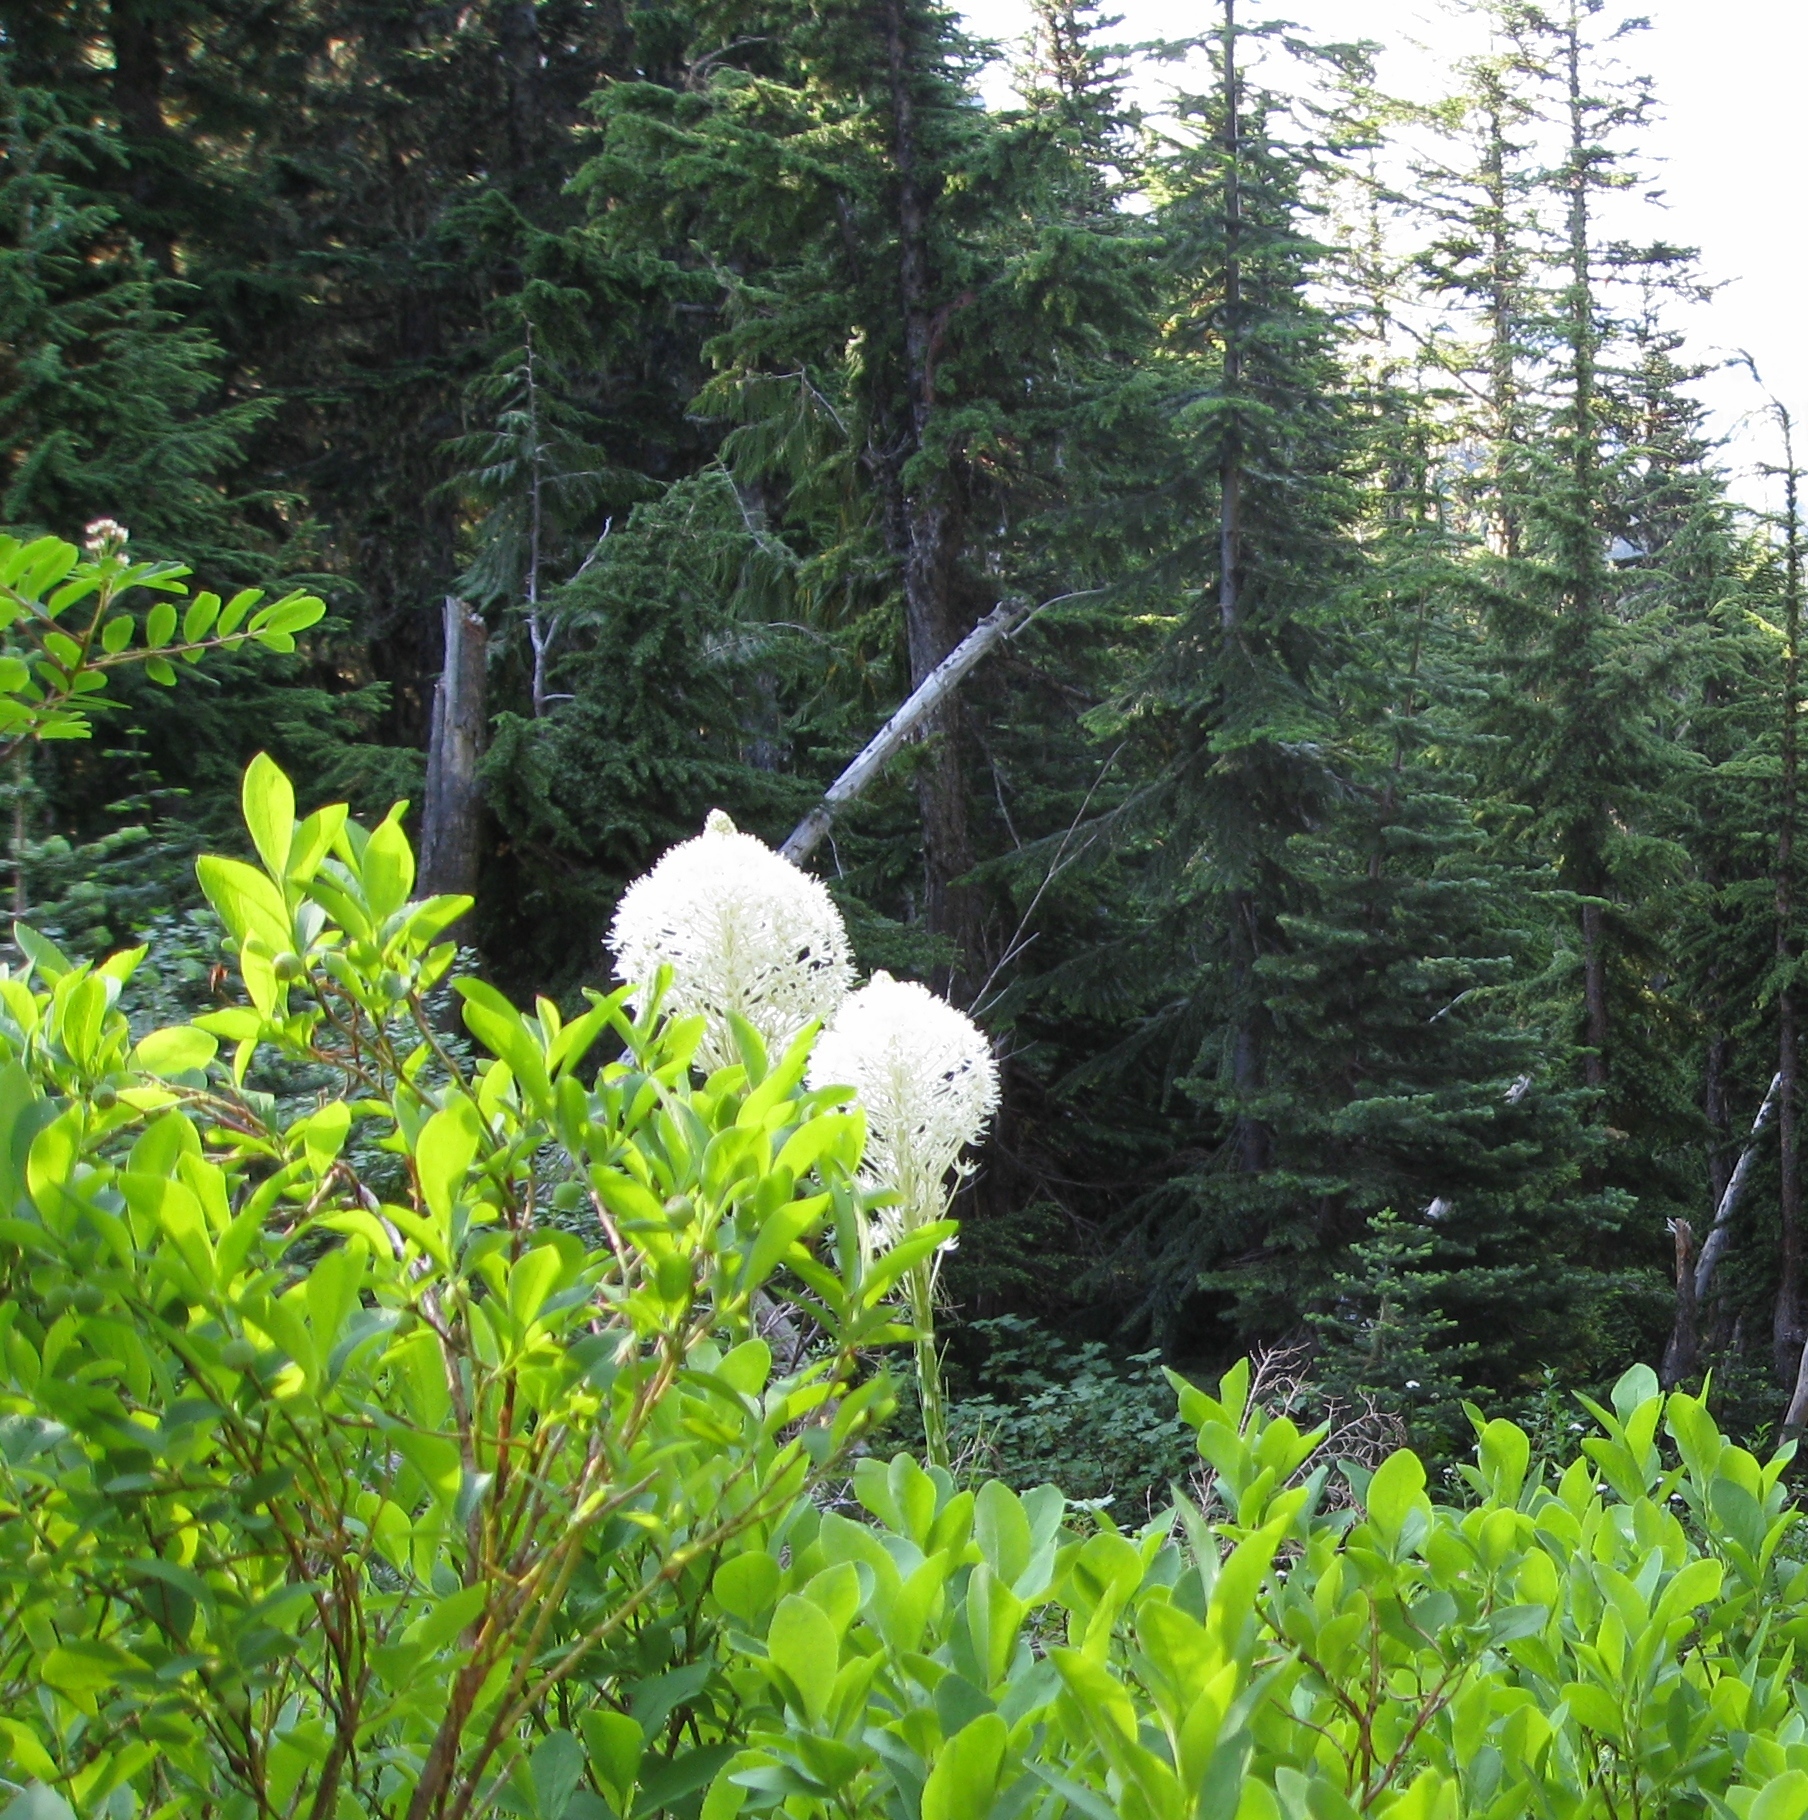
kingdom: Plantae
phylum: Tracheophyta
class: Liliopsida
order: Liliales
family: Melanthiaceae
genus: Xerophyllum
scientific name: Xerophyllum tenax
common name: Bear-grass
